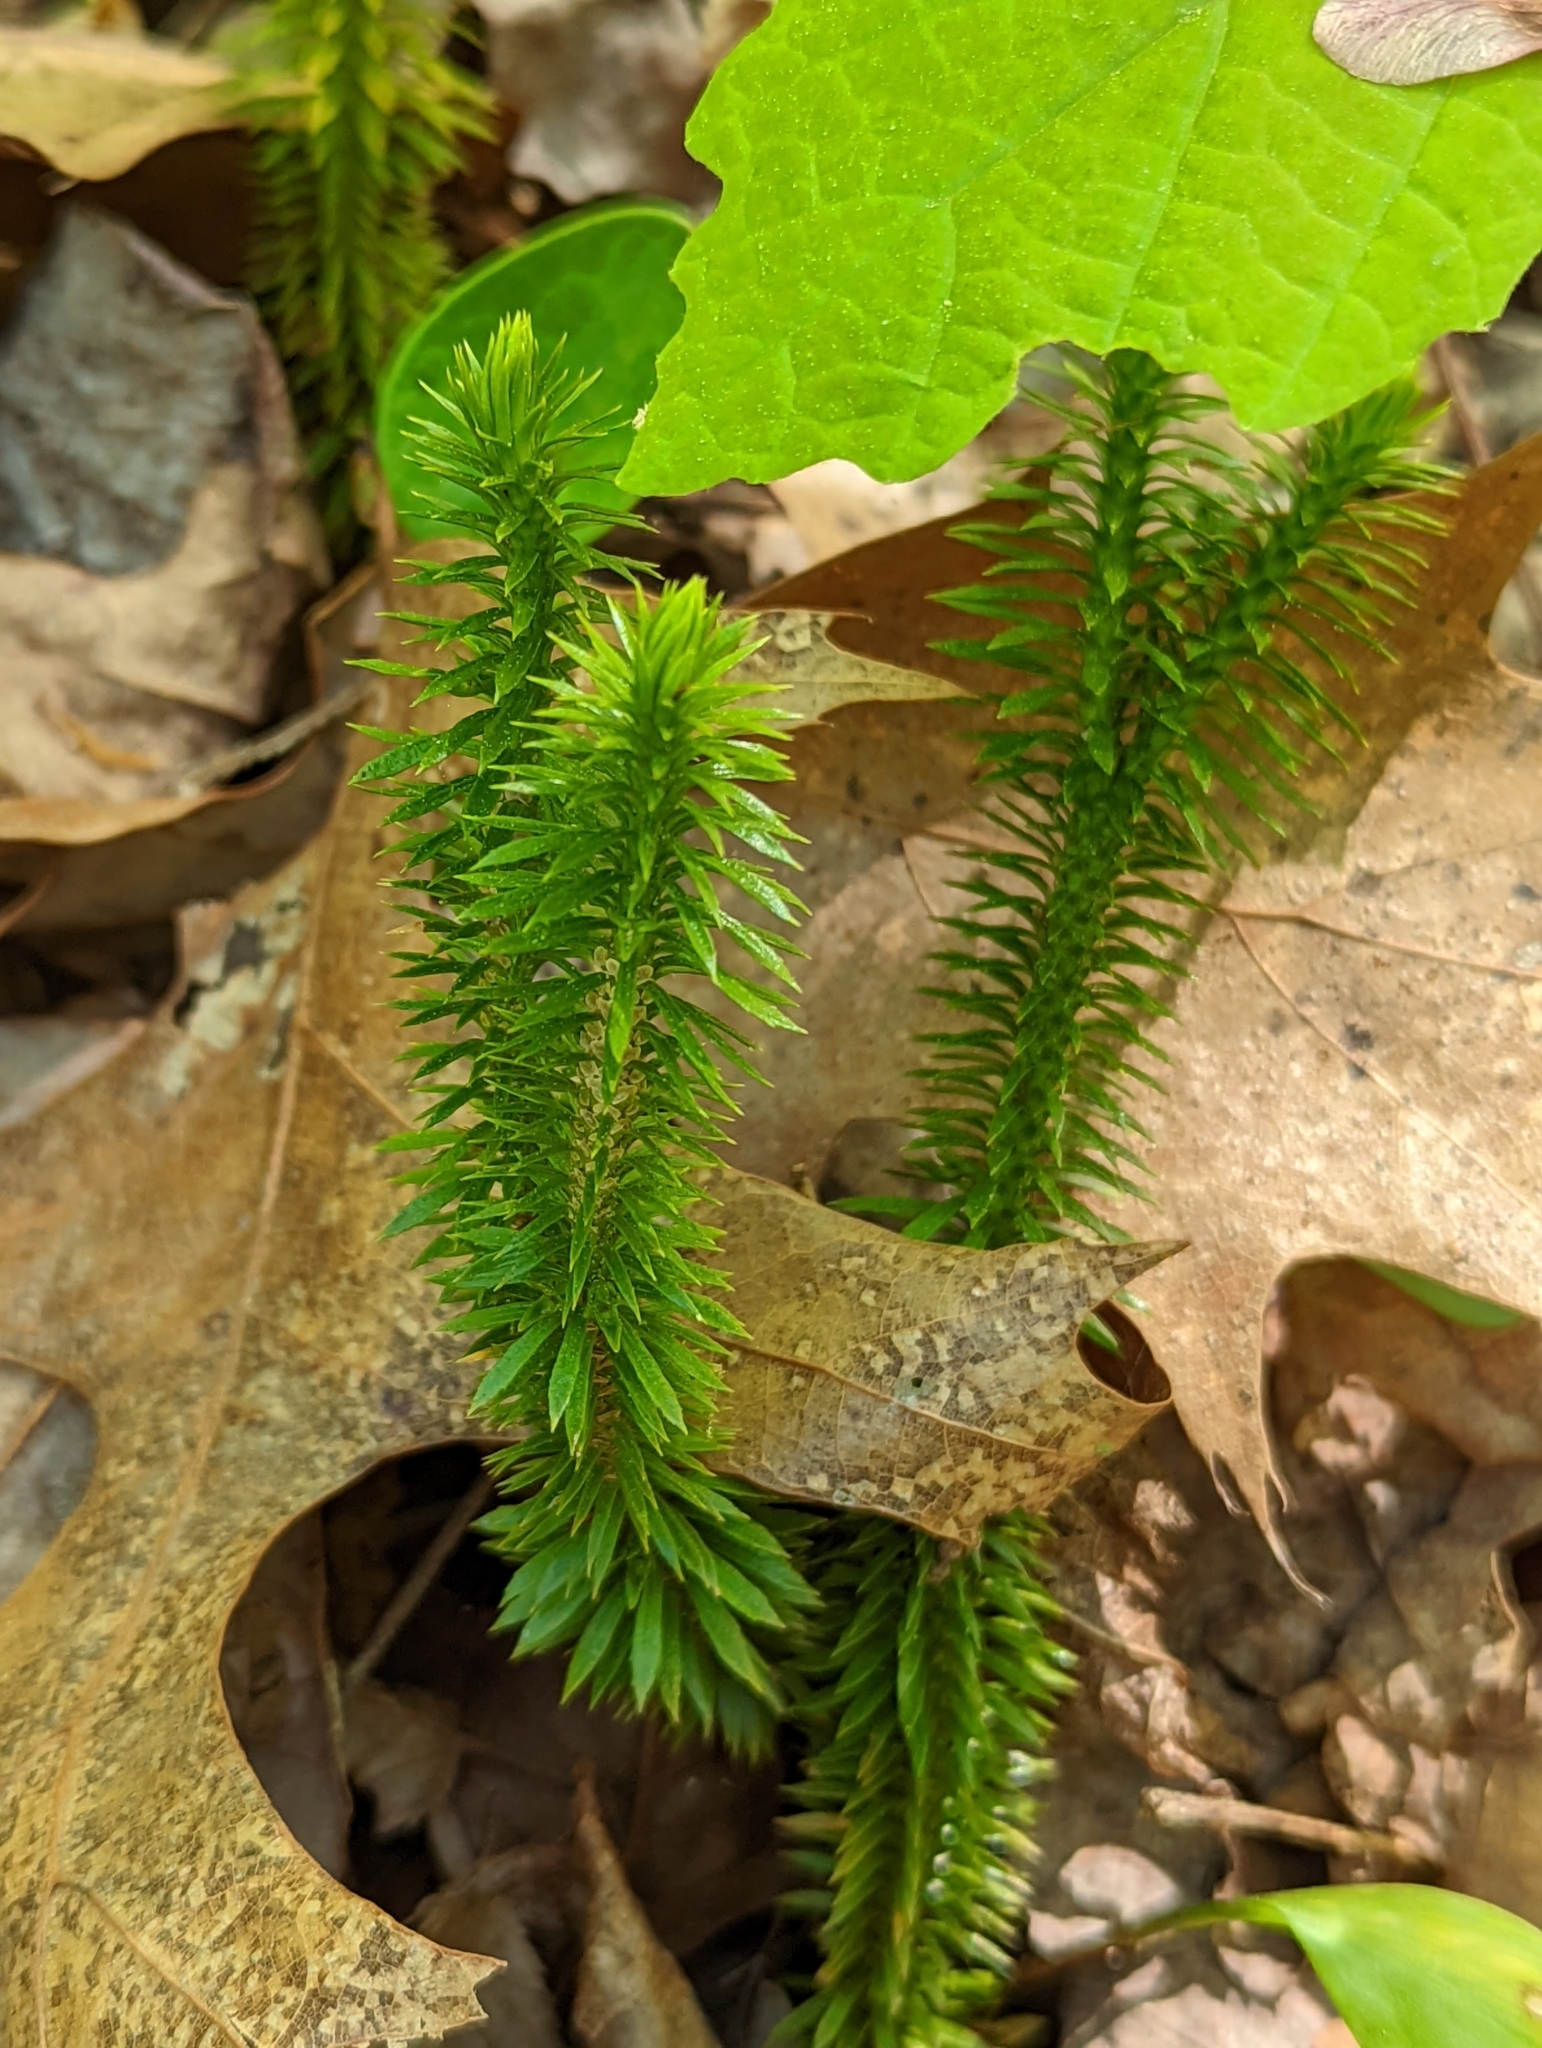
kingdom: Plantae
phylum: Tracheophyta
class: Lycopodiopsida
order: Lycopodiales
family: Lycopodiaceae
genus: Huperzia
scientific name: Huperzia lucidula
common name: Shining clubmoss
